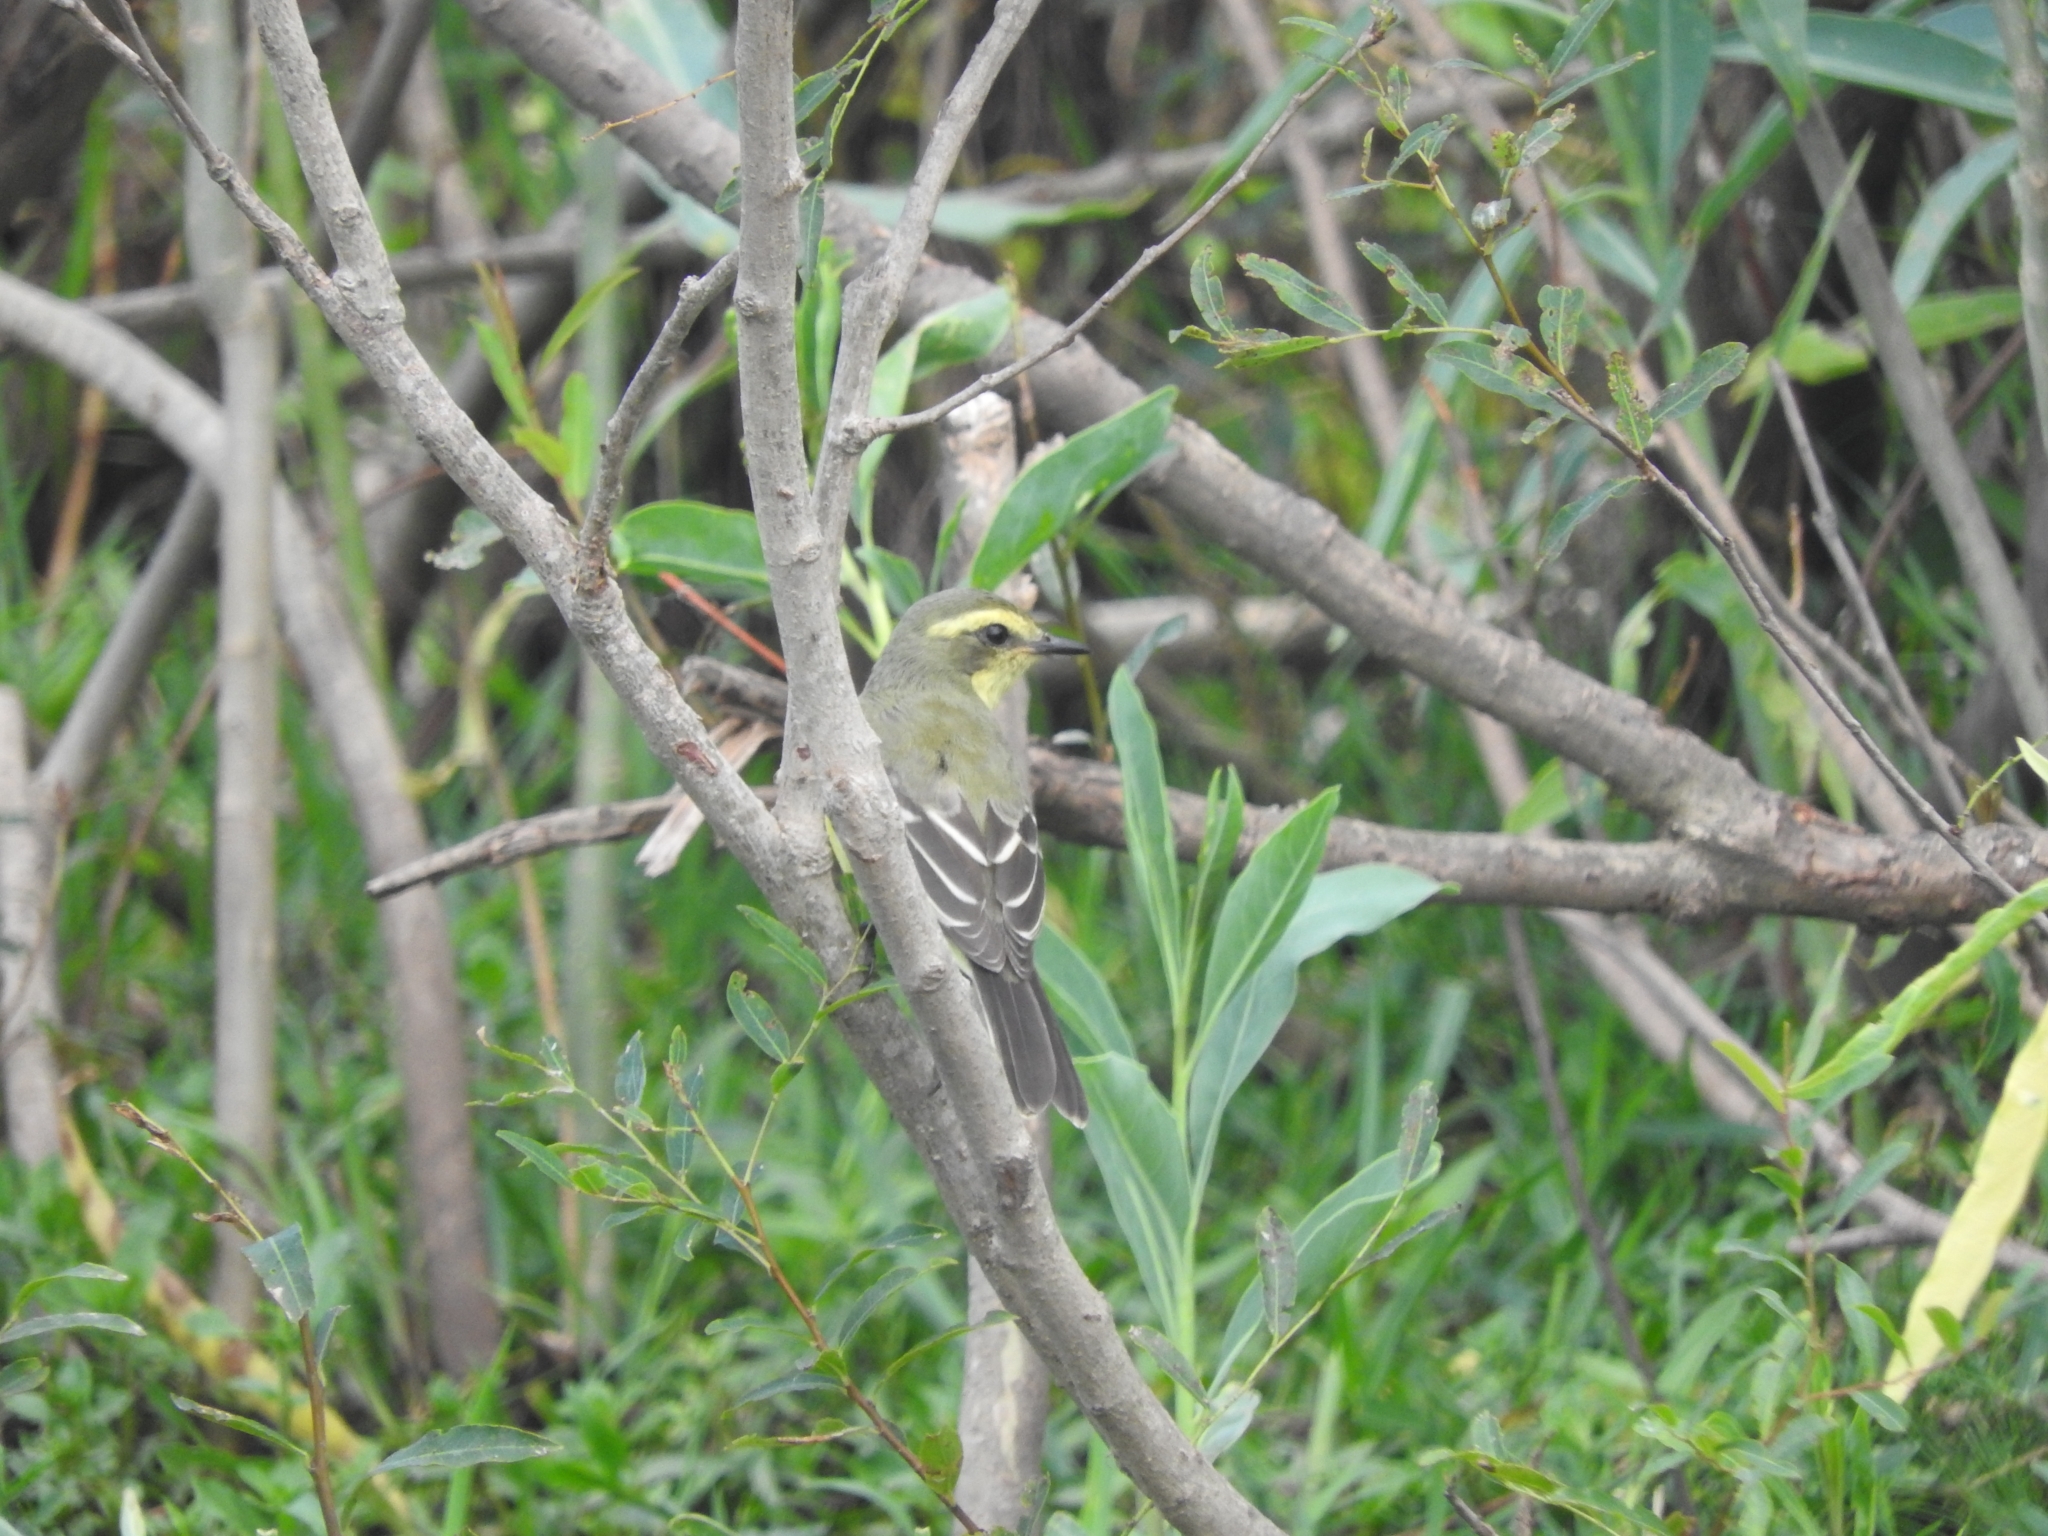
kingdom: Animalia
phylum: Chordata
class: Aves
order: Passeriformes
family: Tyrannidae
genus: Satrapa
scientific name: Satrapa icterophrys
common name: Yellow-browed tyrant
